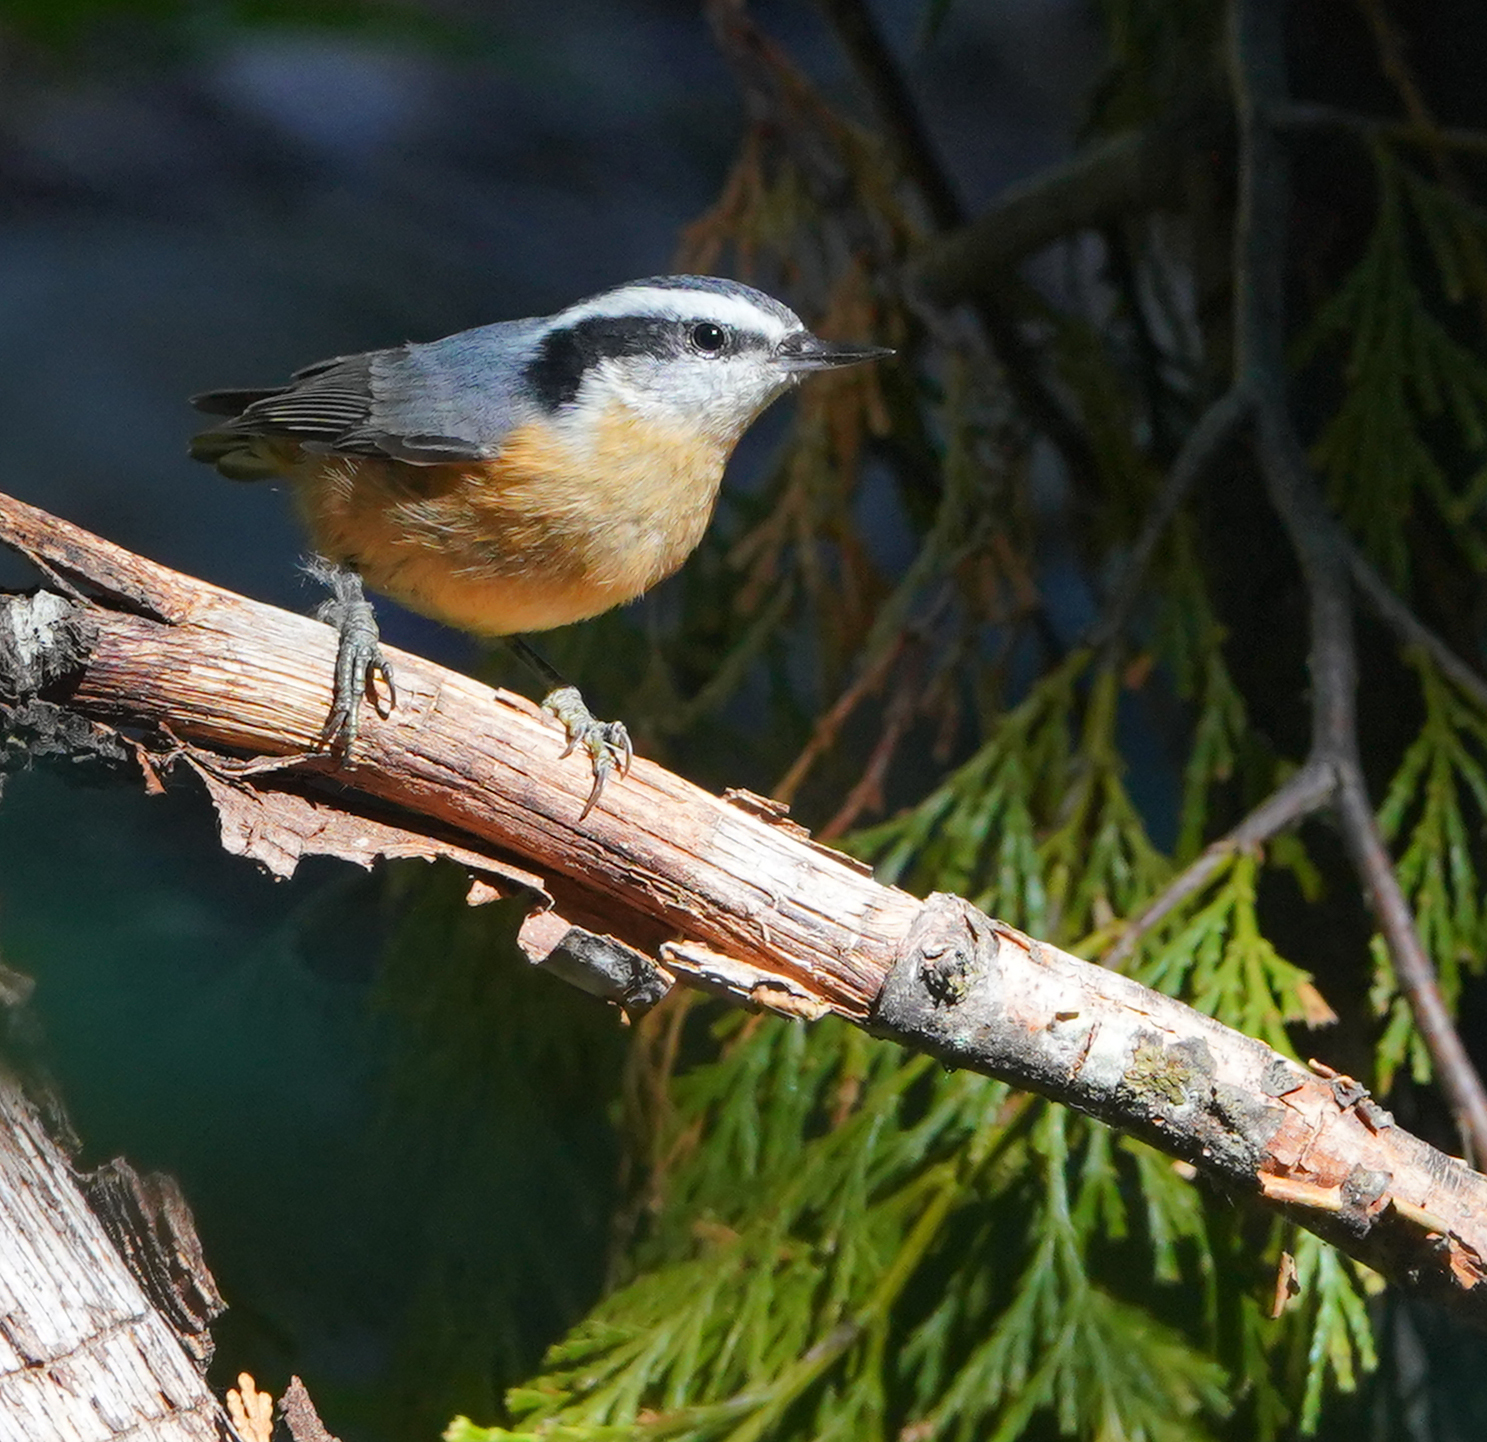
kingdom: Animalia
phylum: Chordata
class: Aves
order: Passeriformes
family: Sittidae
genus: Sitta
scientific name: Sitta canadensis
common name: Red-breasted nuthatch
